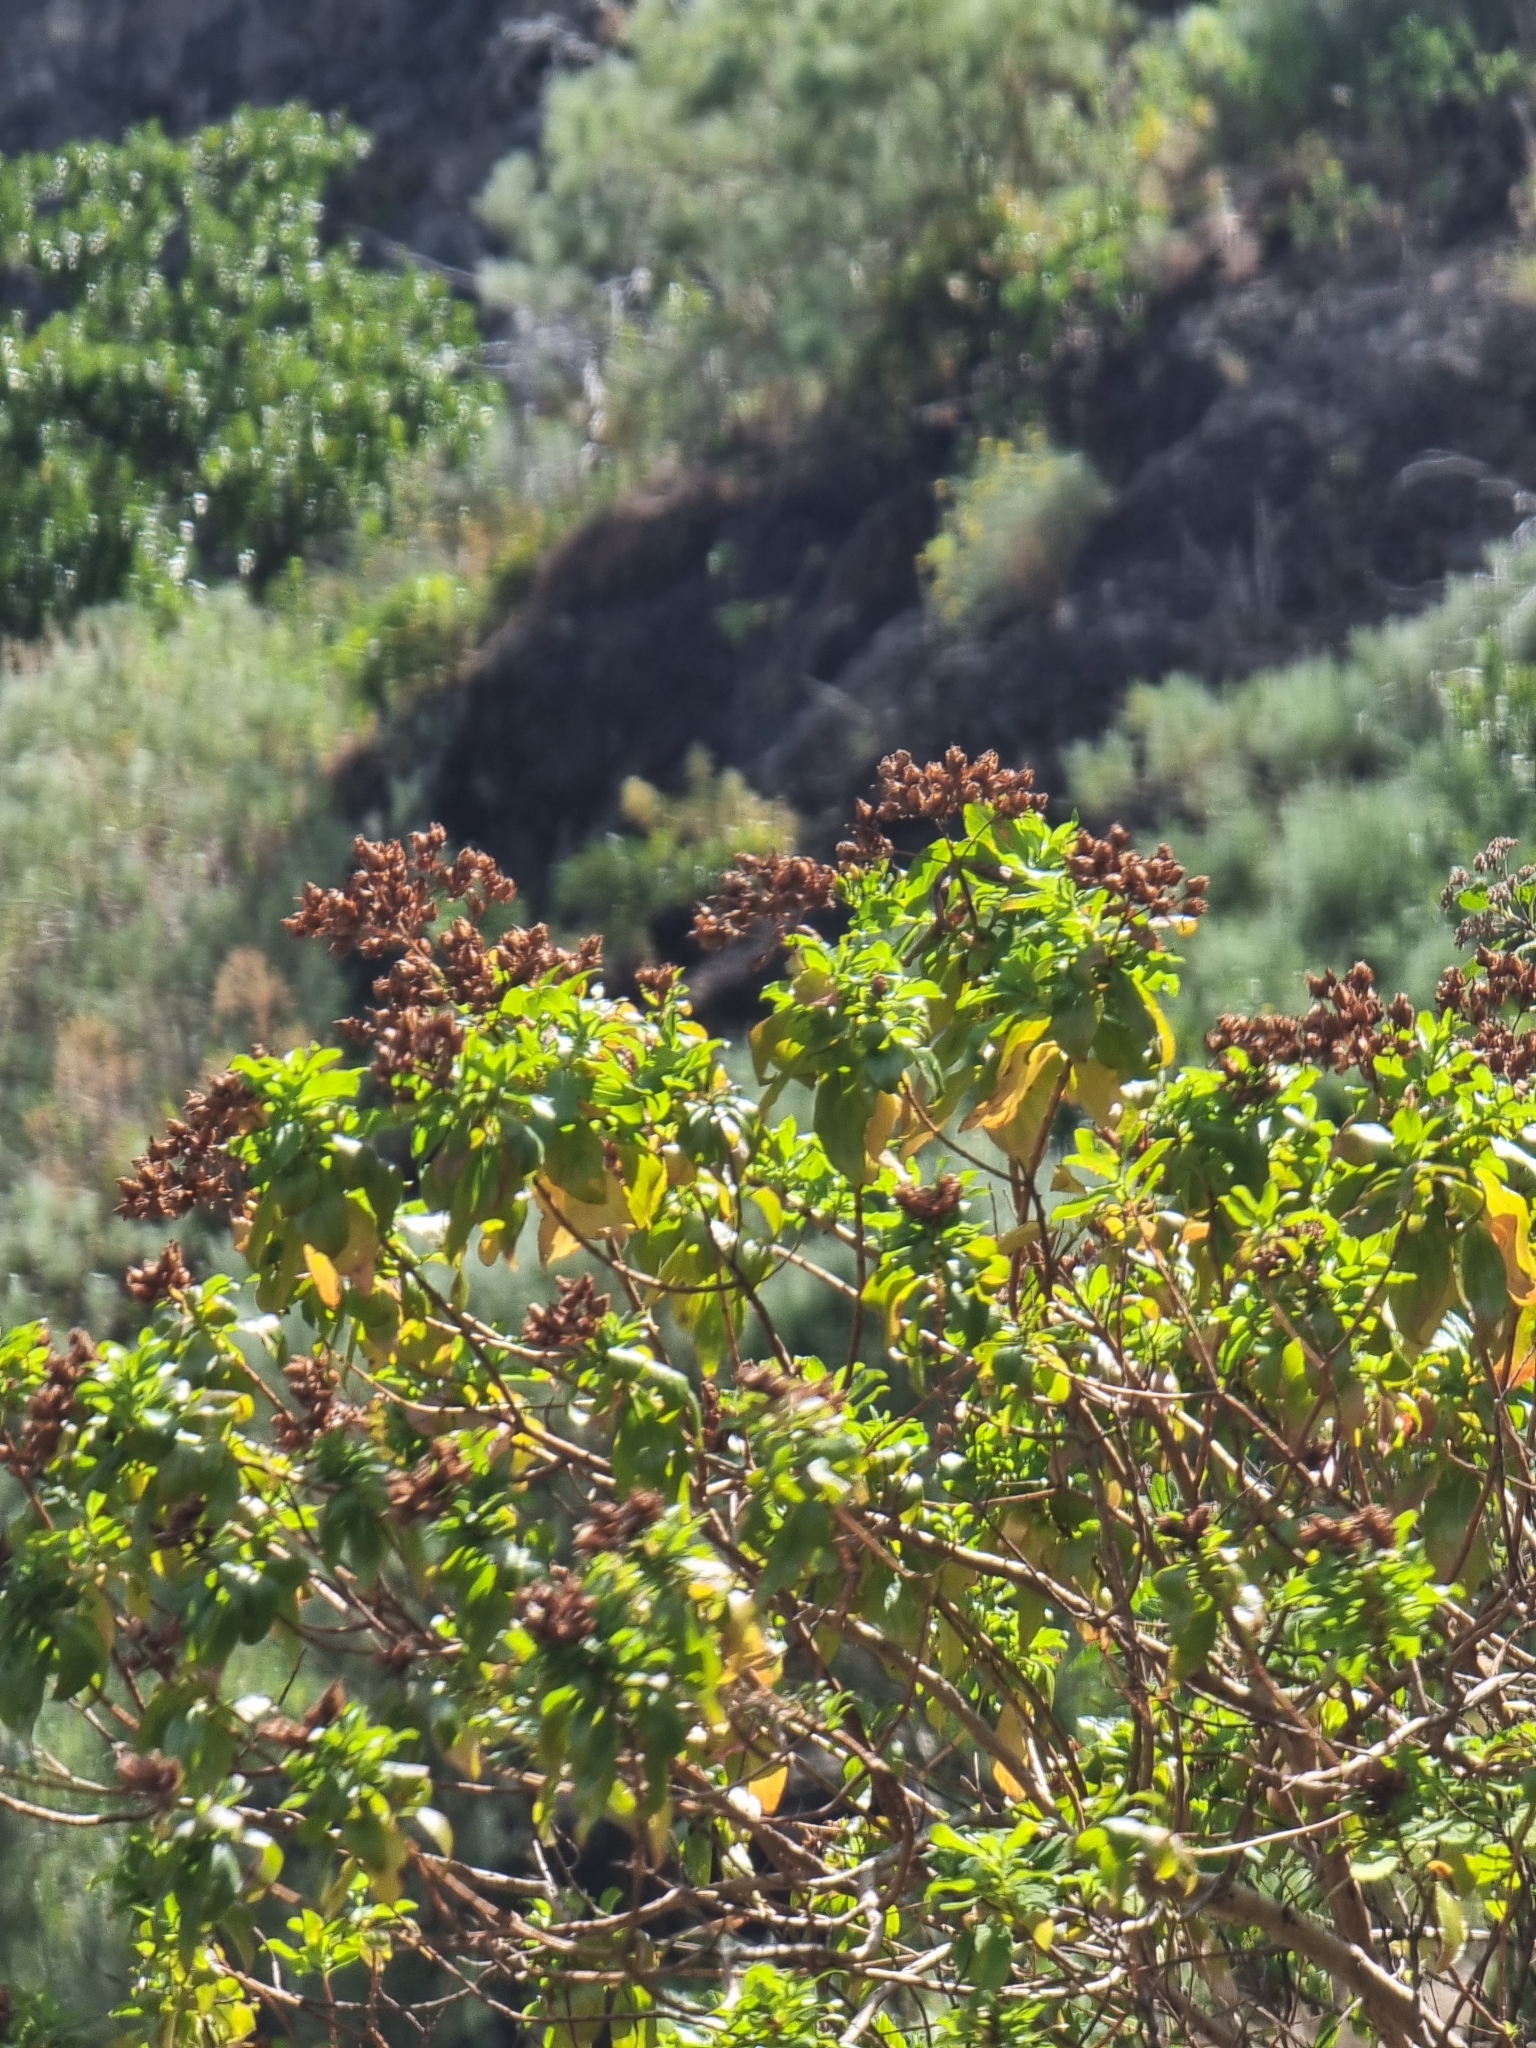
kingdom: Plantae
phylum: Tracheophyta
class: Magnoliopsida
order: Malpighiales
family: Hypericaceae
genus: Hypericum
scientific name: Hypericum glandulosum
